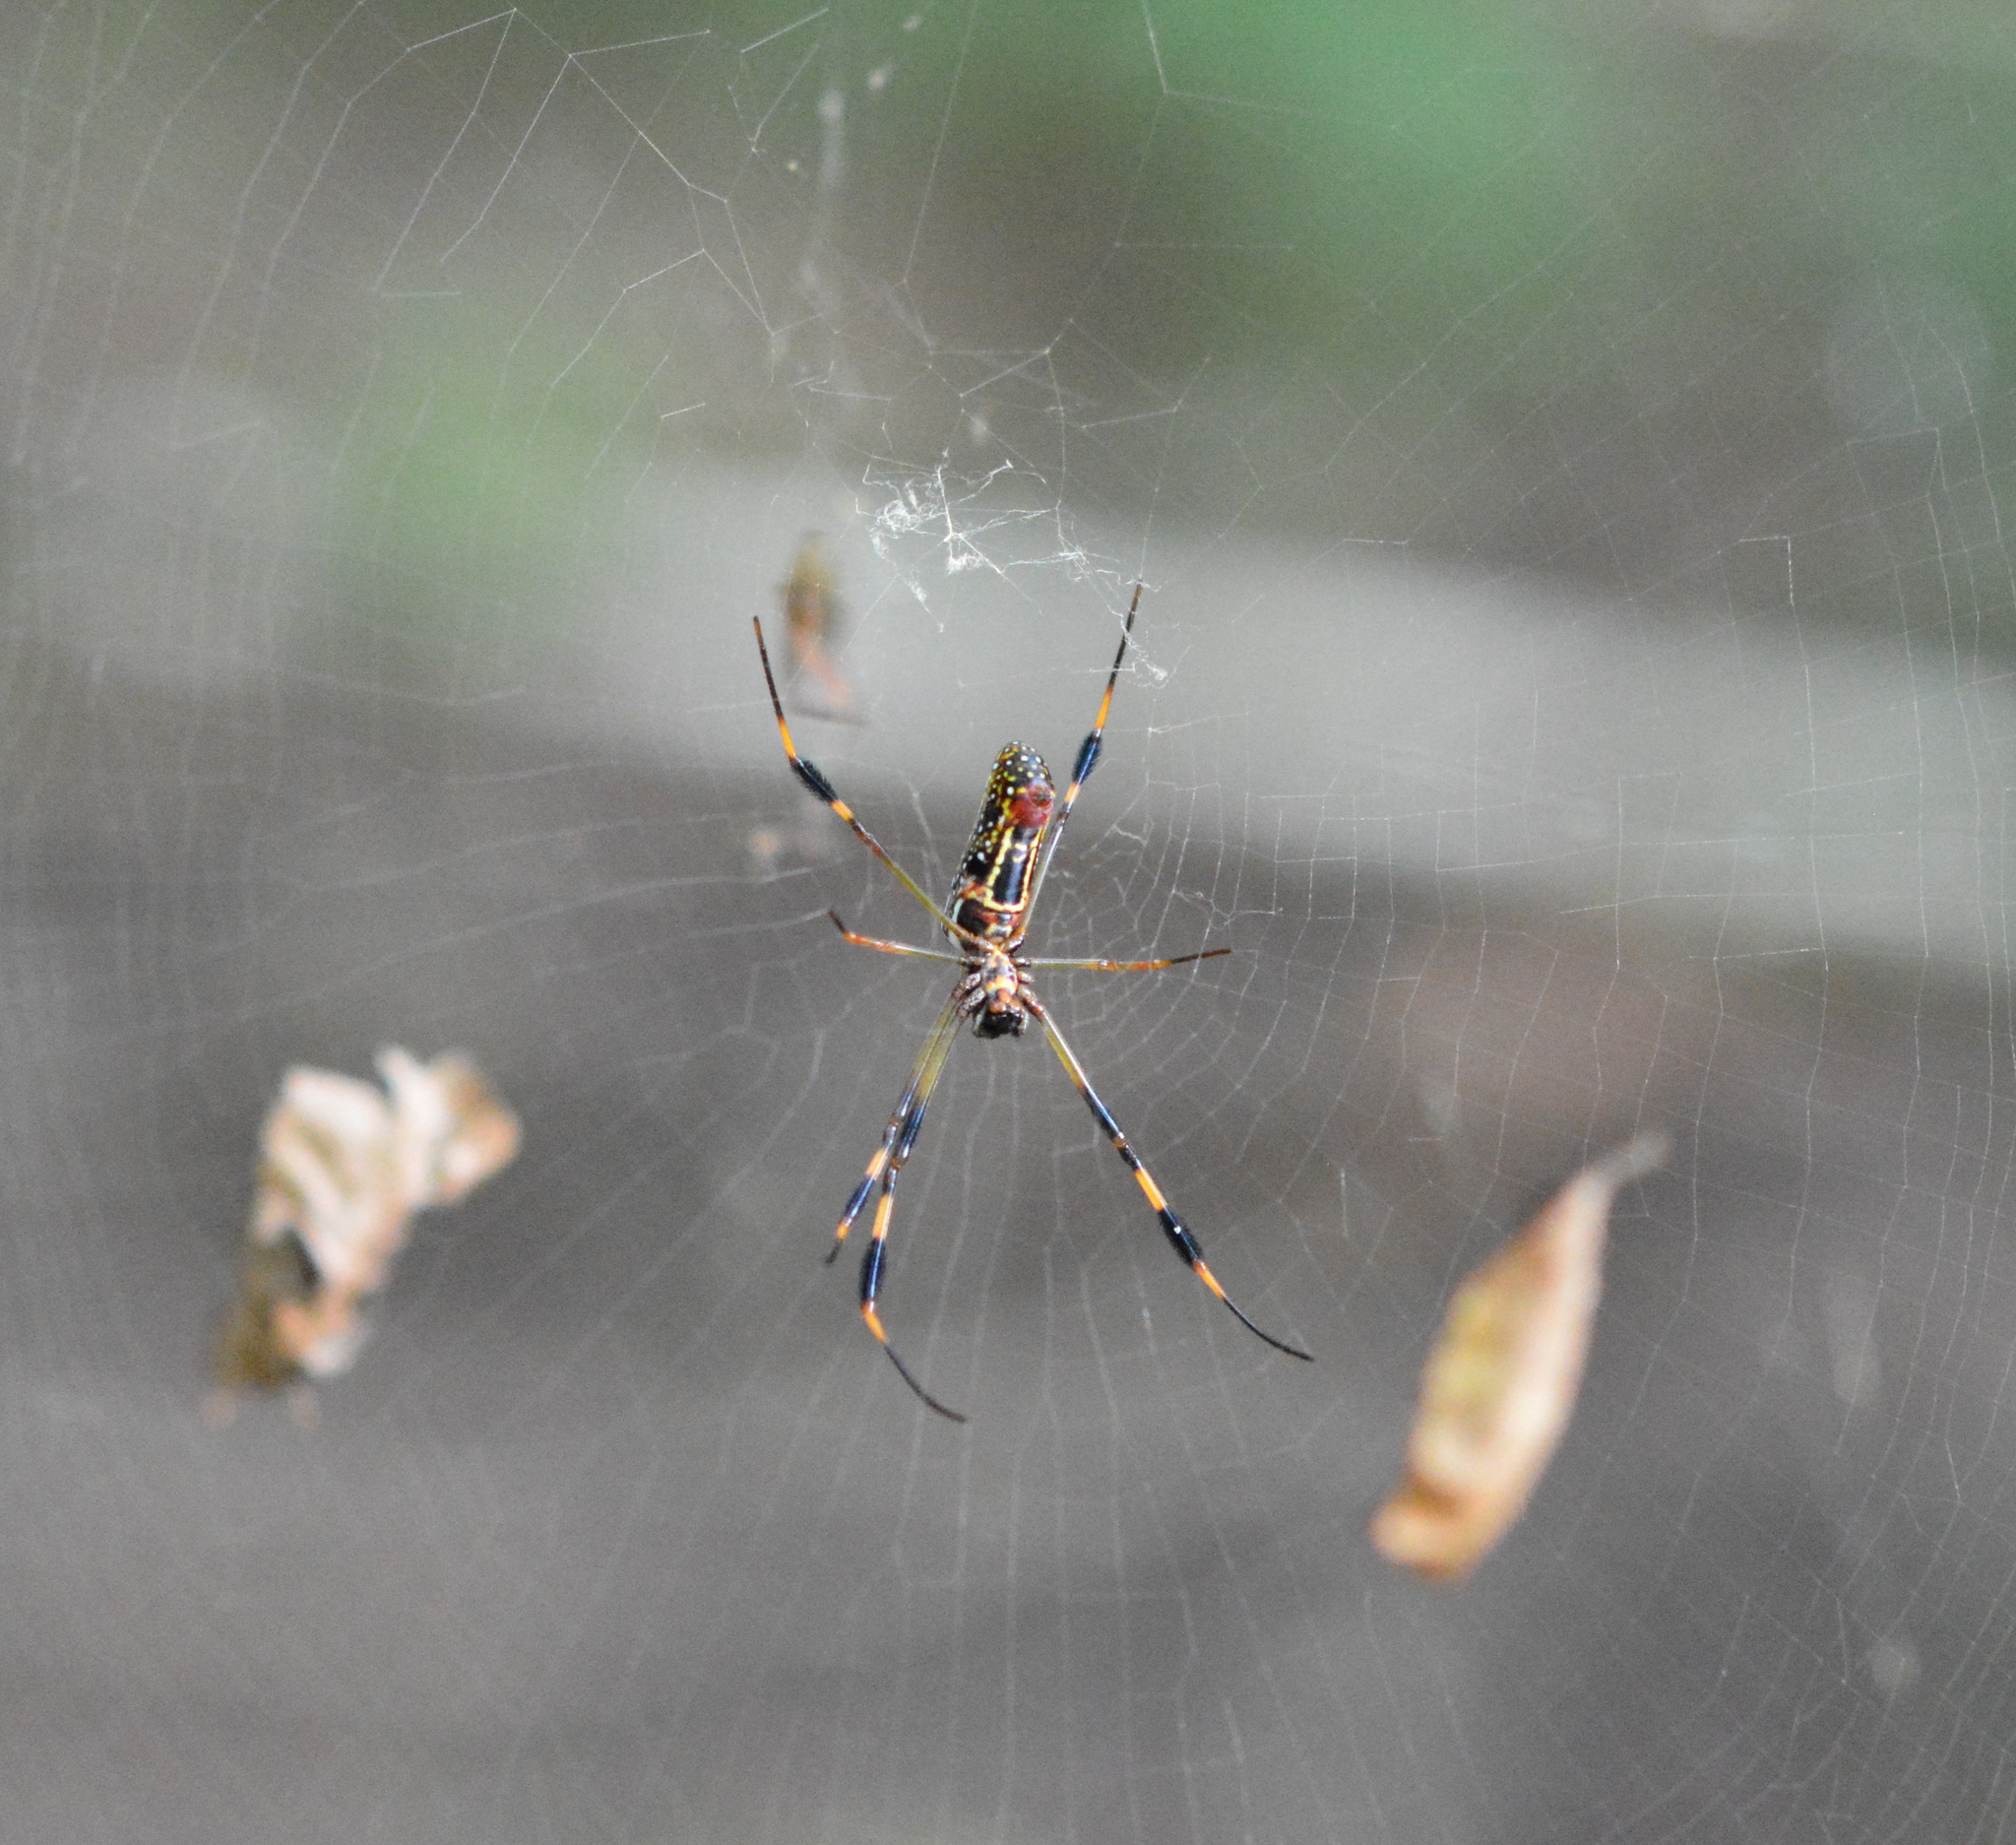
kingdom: Animalia
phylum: Arthropoda
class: Arachnida
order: Araneae
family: Araneidae
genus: Trichonephila
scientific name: Trichonephila clavipes
